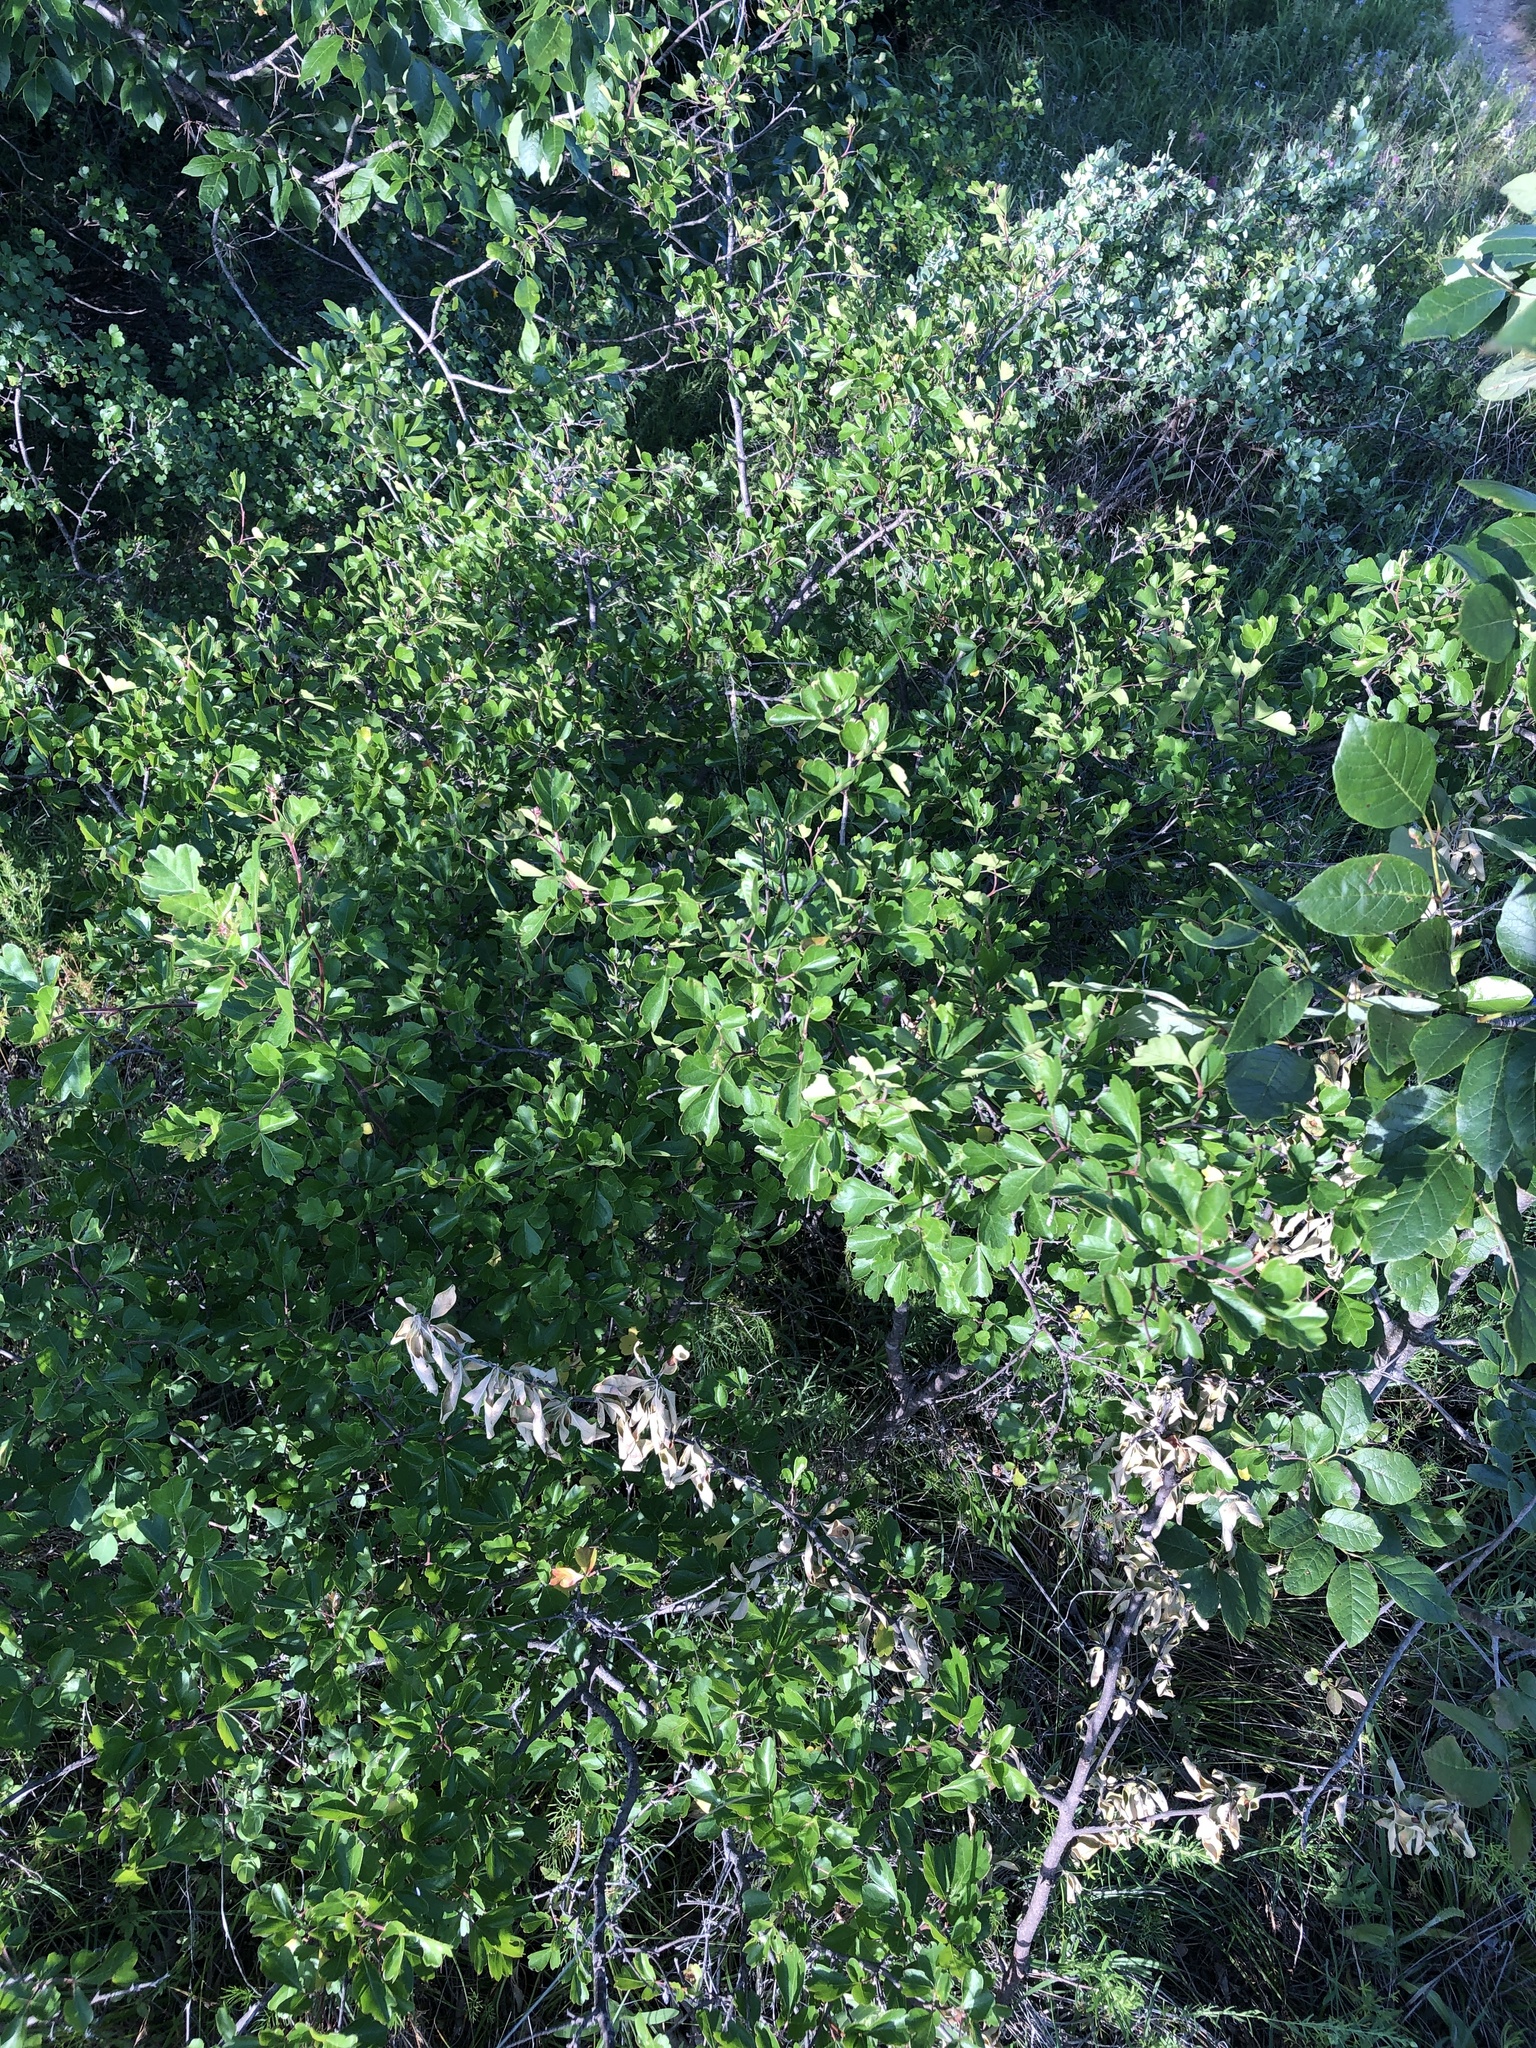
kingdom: Plantae
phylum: Tracheophyta
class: Magnoliopsida
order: Sapindales
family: Anacardiaceae
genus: Rhus
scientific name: Rhus aromatica
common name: Aromatic sumac
